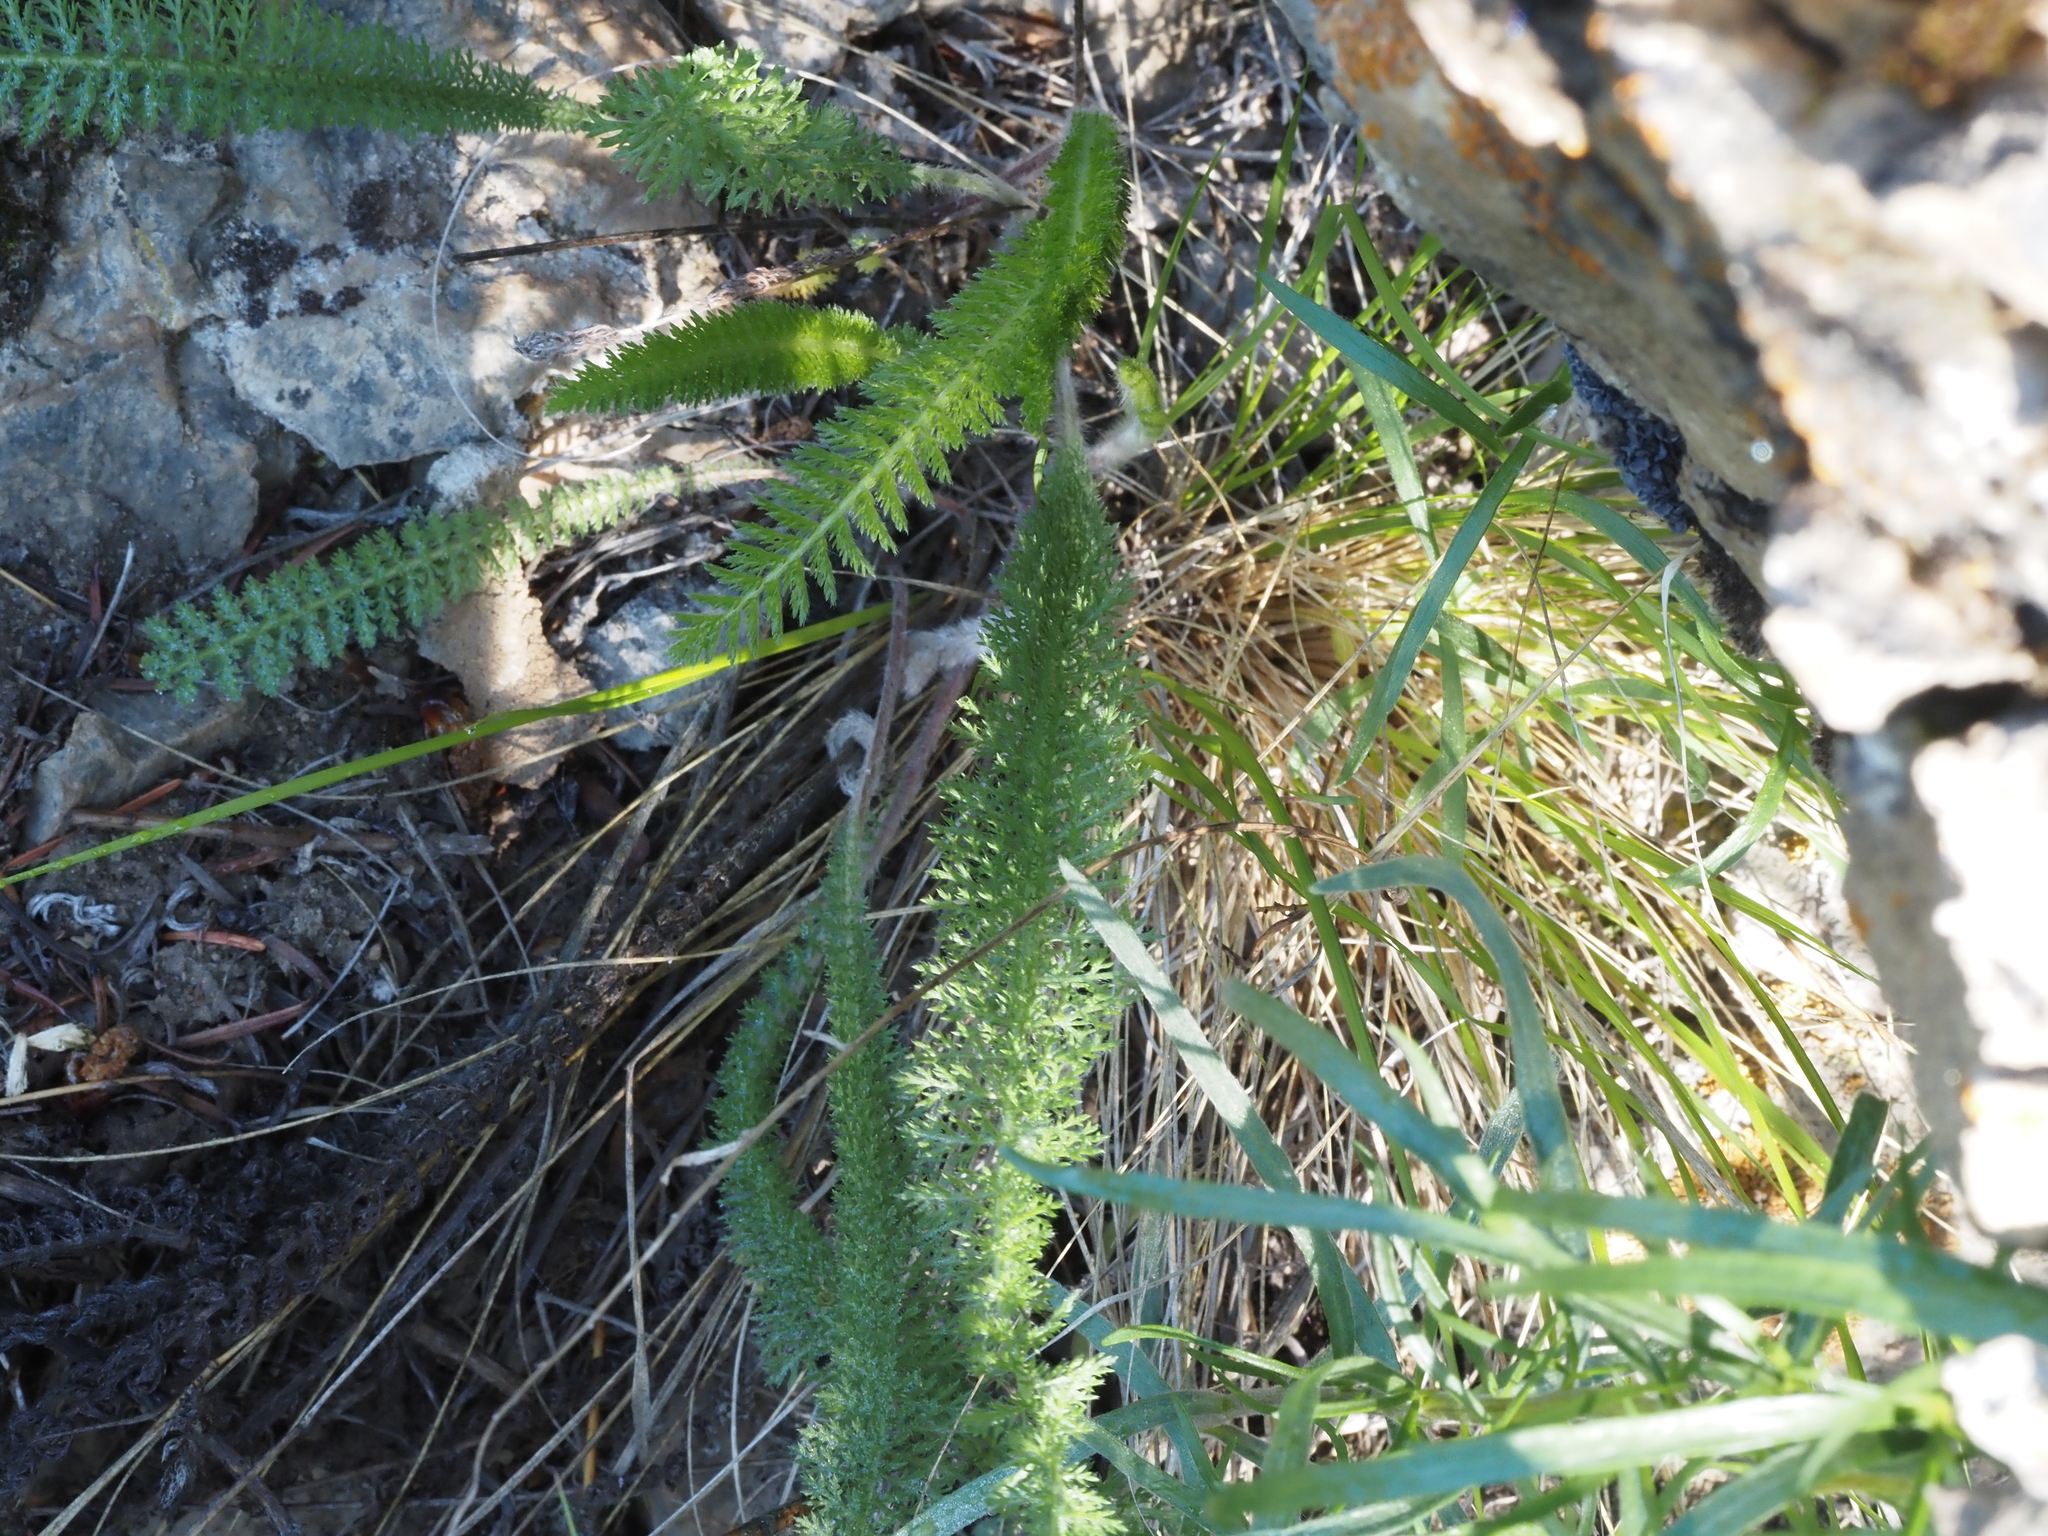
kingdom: Plantae
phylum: Tracheophyta
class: Magnoliopsida
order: Asterales
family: Asteraceae
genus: Achillea
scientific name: Achillea millefolium
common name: Yarrow
